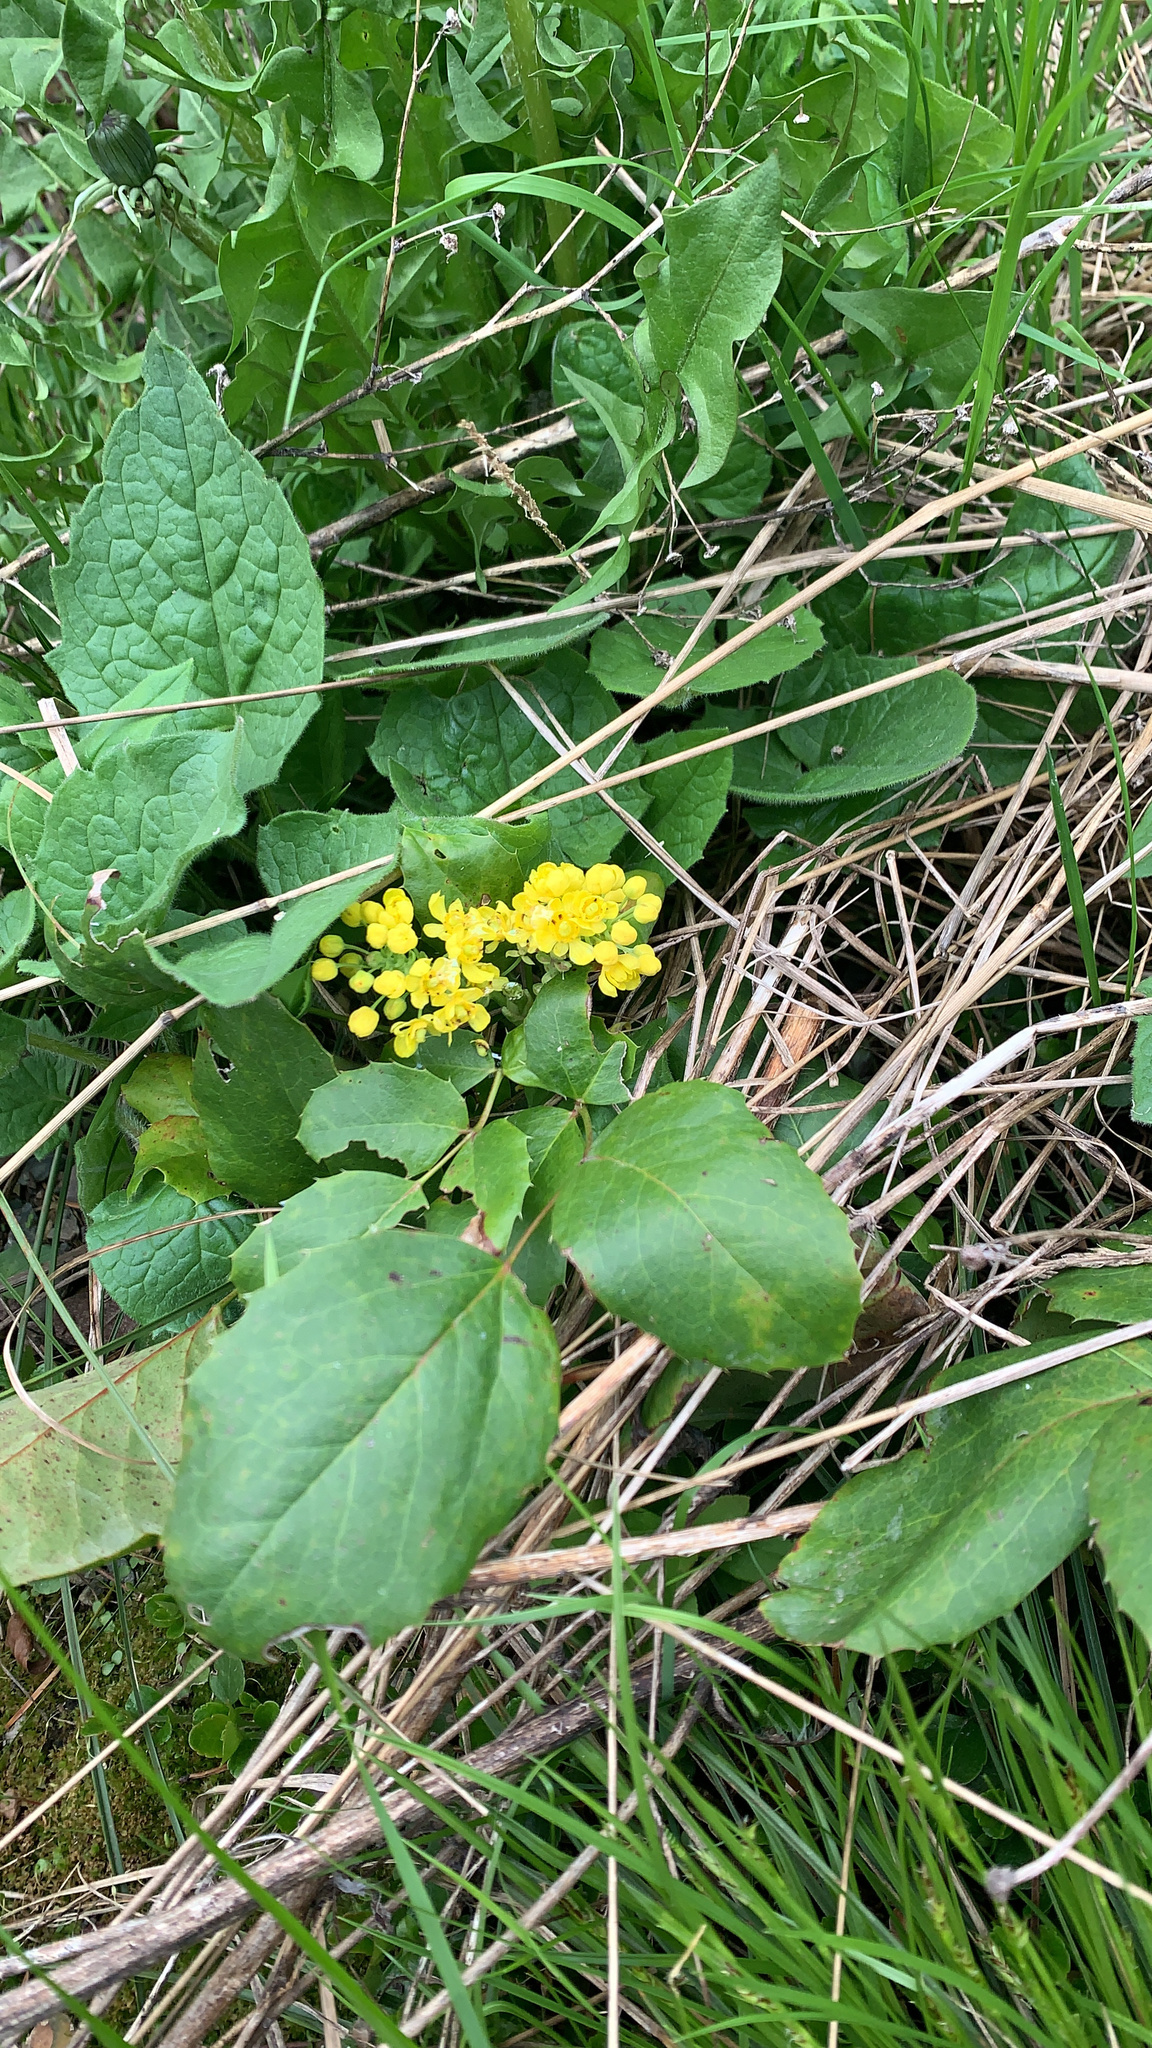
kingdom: Plantae
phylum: Tracheophyta
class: Magnoliopsida
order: Ranunculales
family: Berberidaceae
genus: Mahonia
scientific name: Mahonia repens
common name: Creeping oregon-grape
